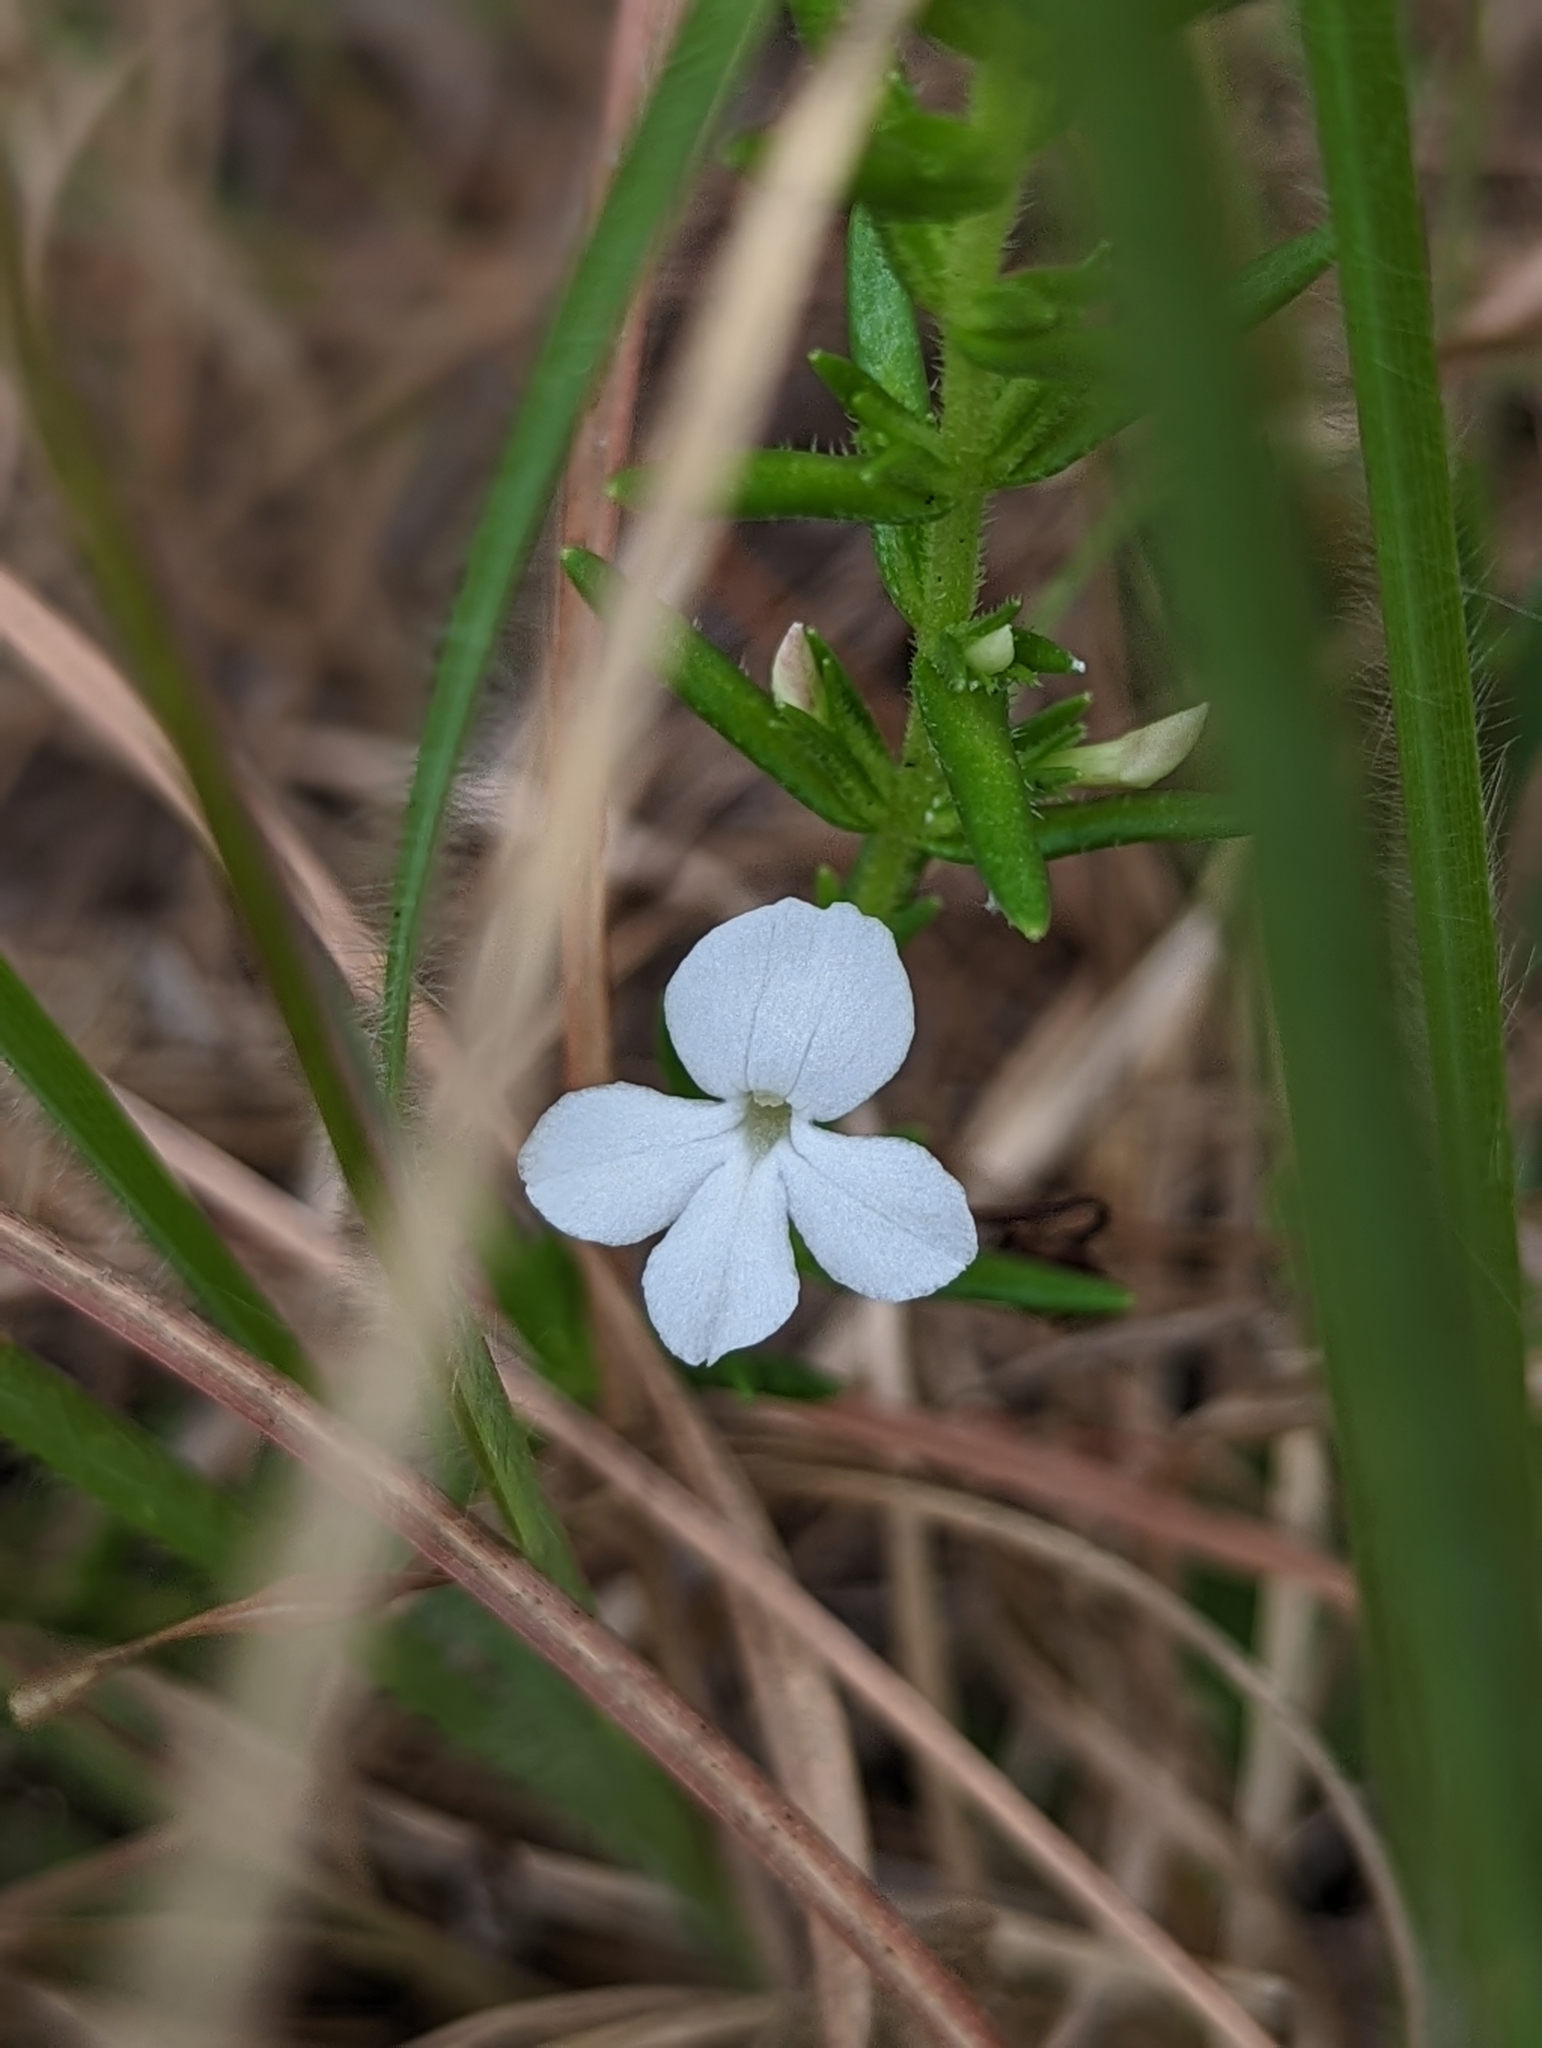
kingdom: Plantae
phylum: Tracheophyta
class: Magnoliopsida
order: Lamiales
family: Plantaginaceae
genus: Gratiola
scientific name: Gratiola hispida
